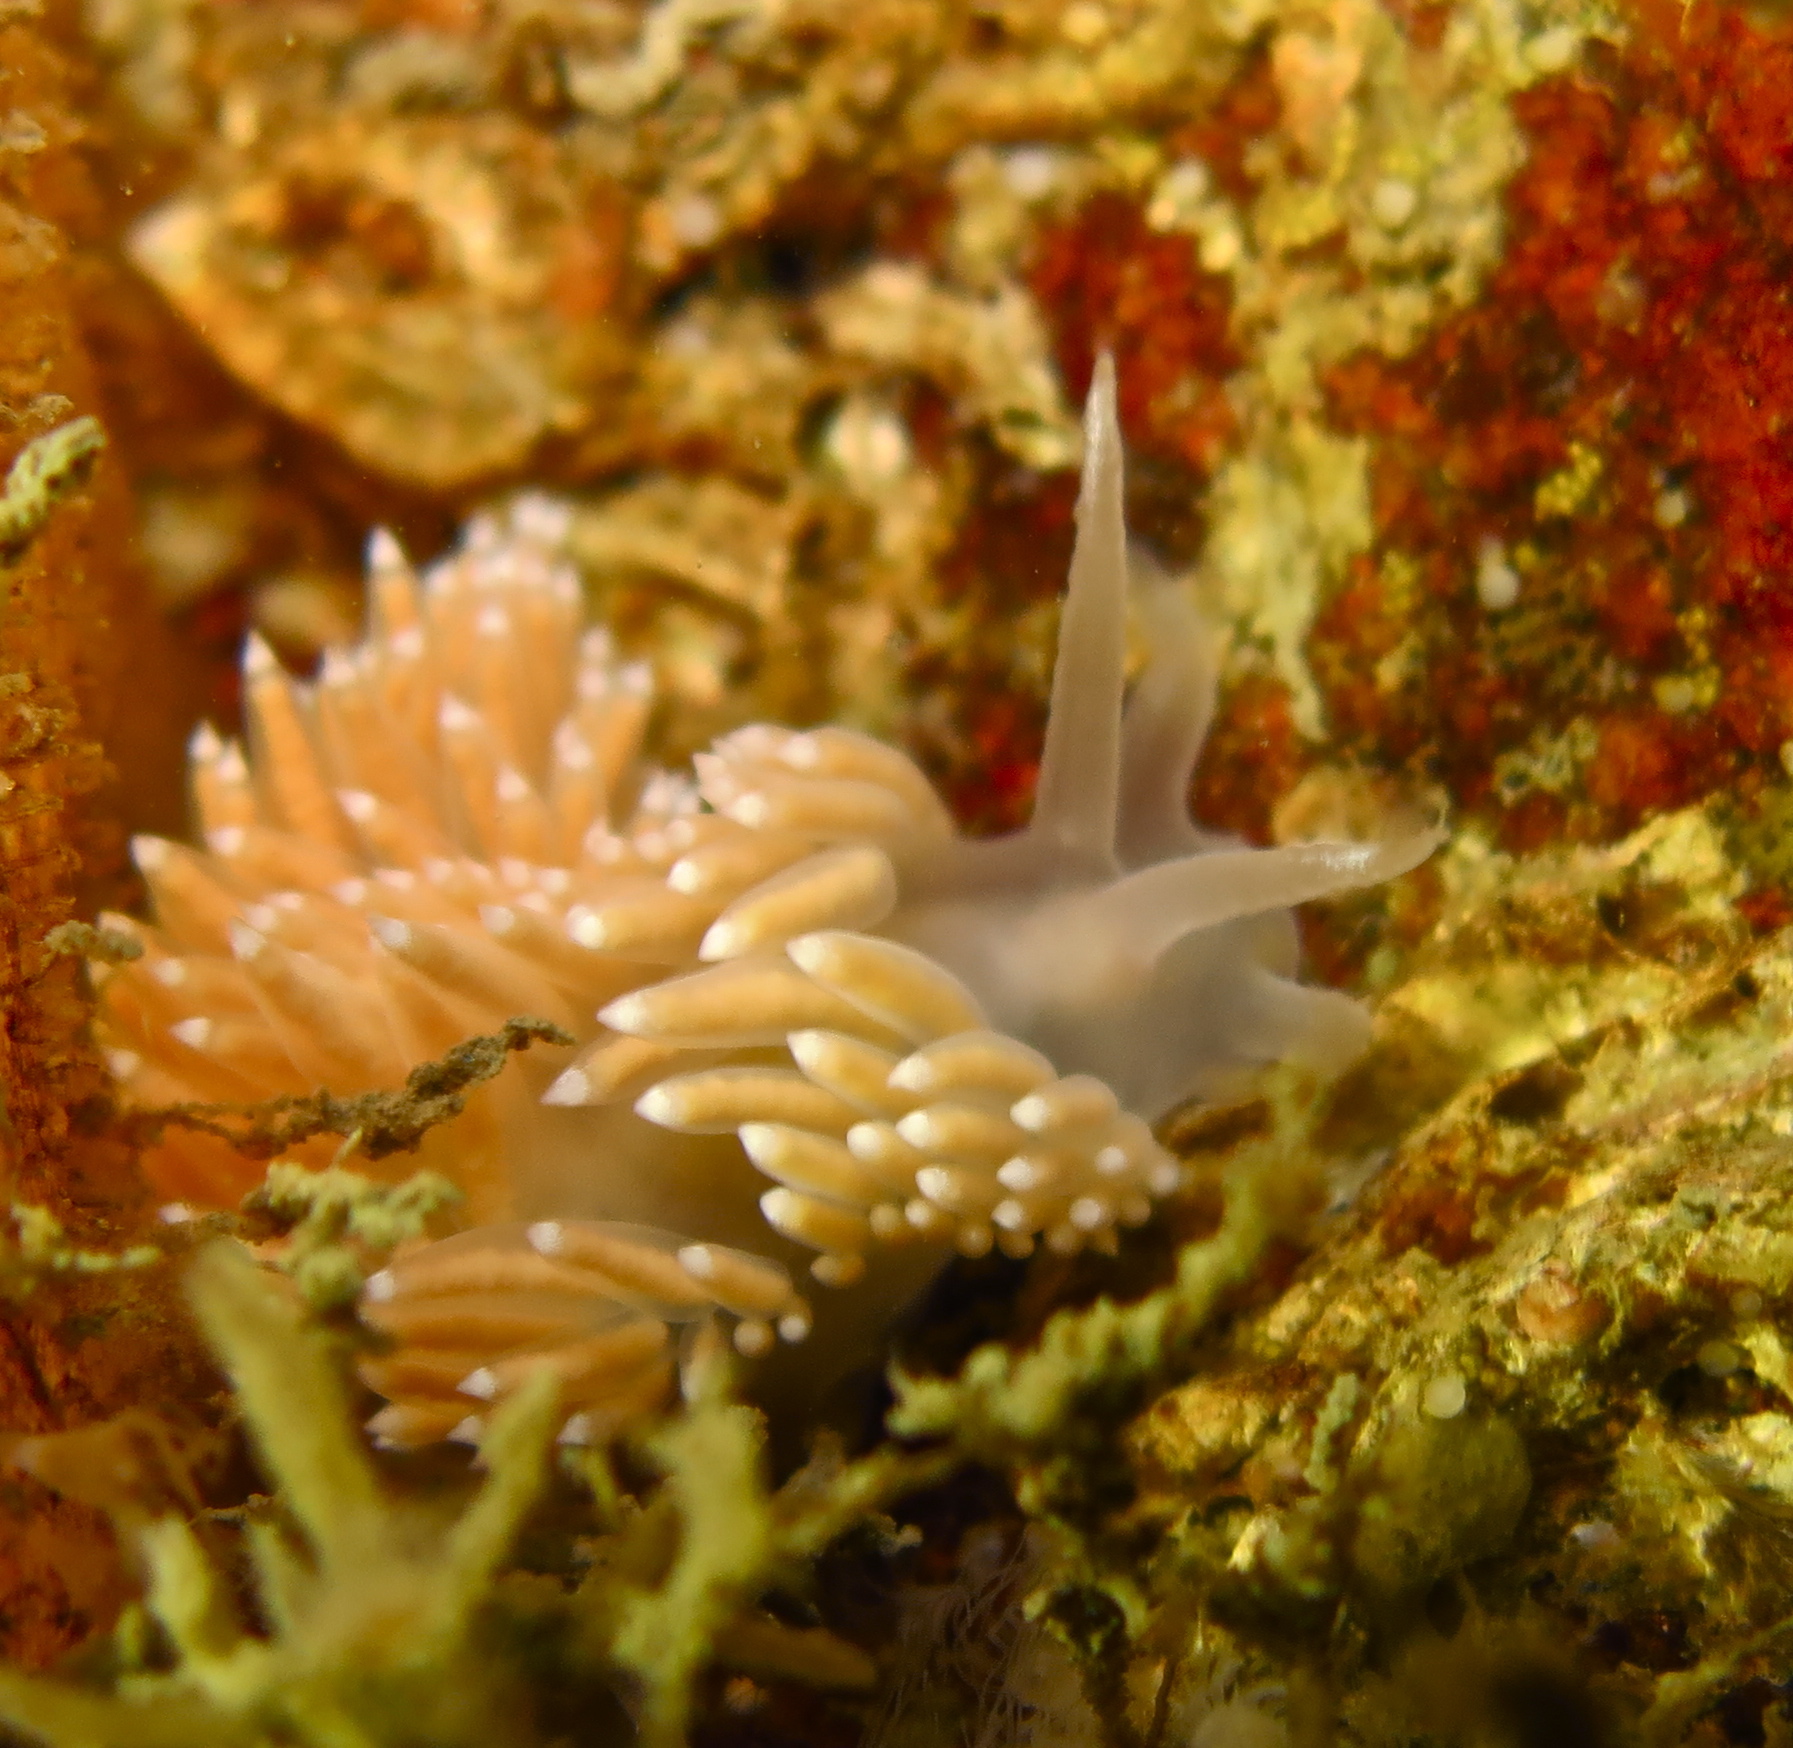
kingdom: Animalia
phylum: Mollusca
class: Gastropoda
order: Nudibranchia
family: Coryphellidae
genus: Coryphella
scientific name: Coryphella verrucosa
